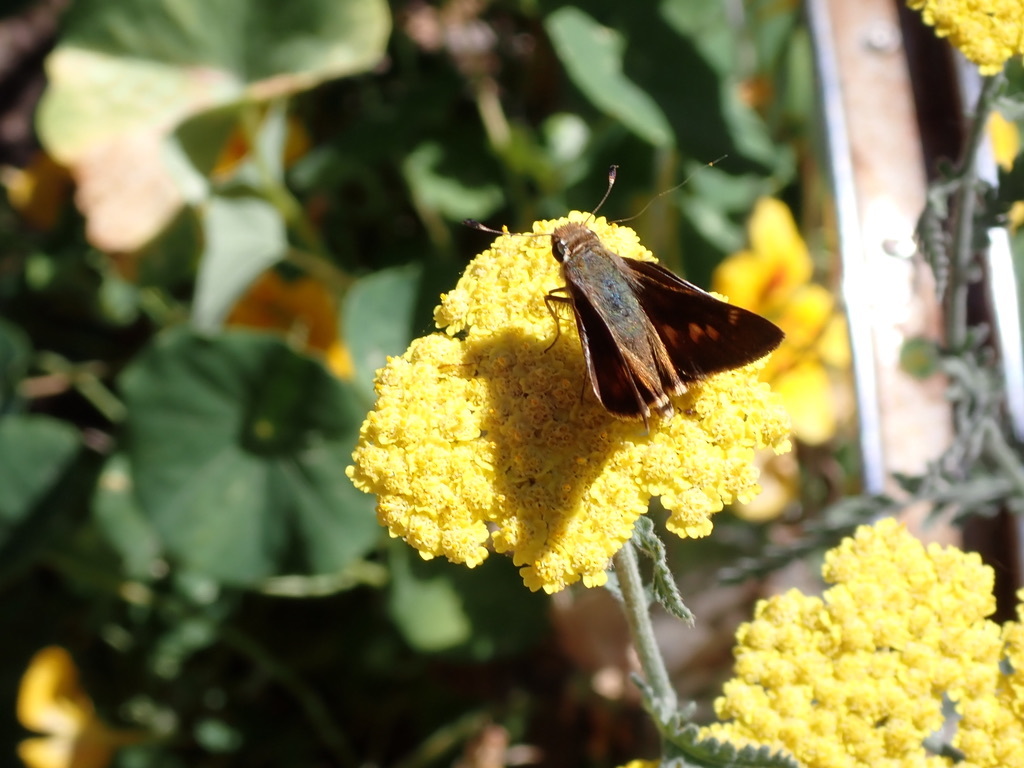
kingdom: Animalia
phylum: Arthropoda
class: Insecta
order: Lepidoptera
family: Hesperiidae
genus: Lon
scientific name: Lon melane
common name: Umber skipper
